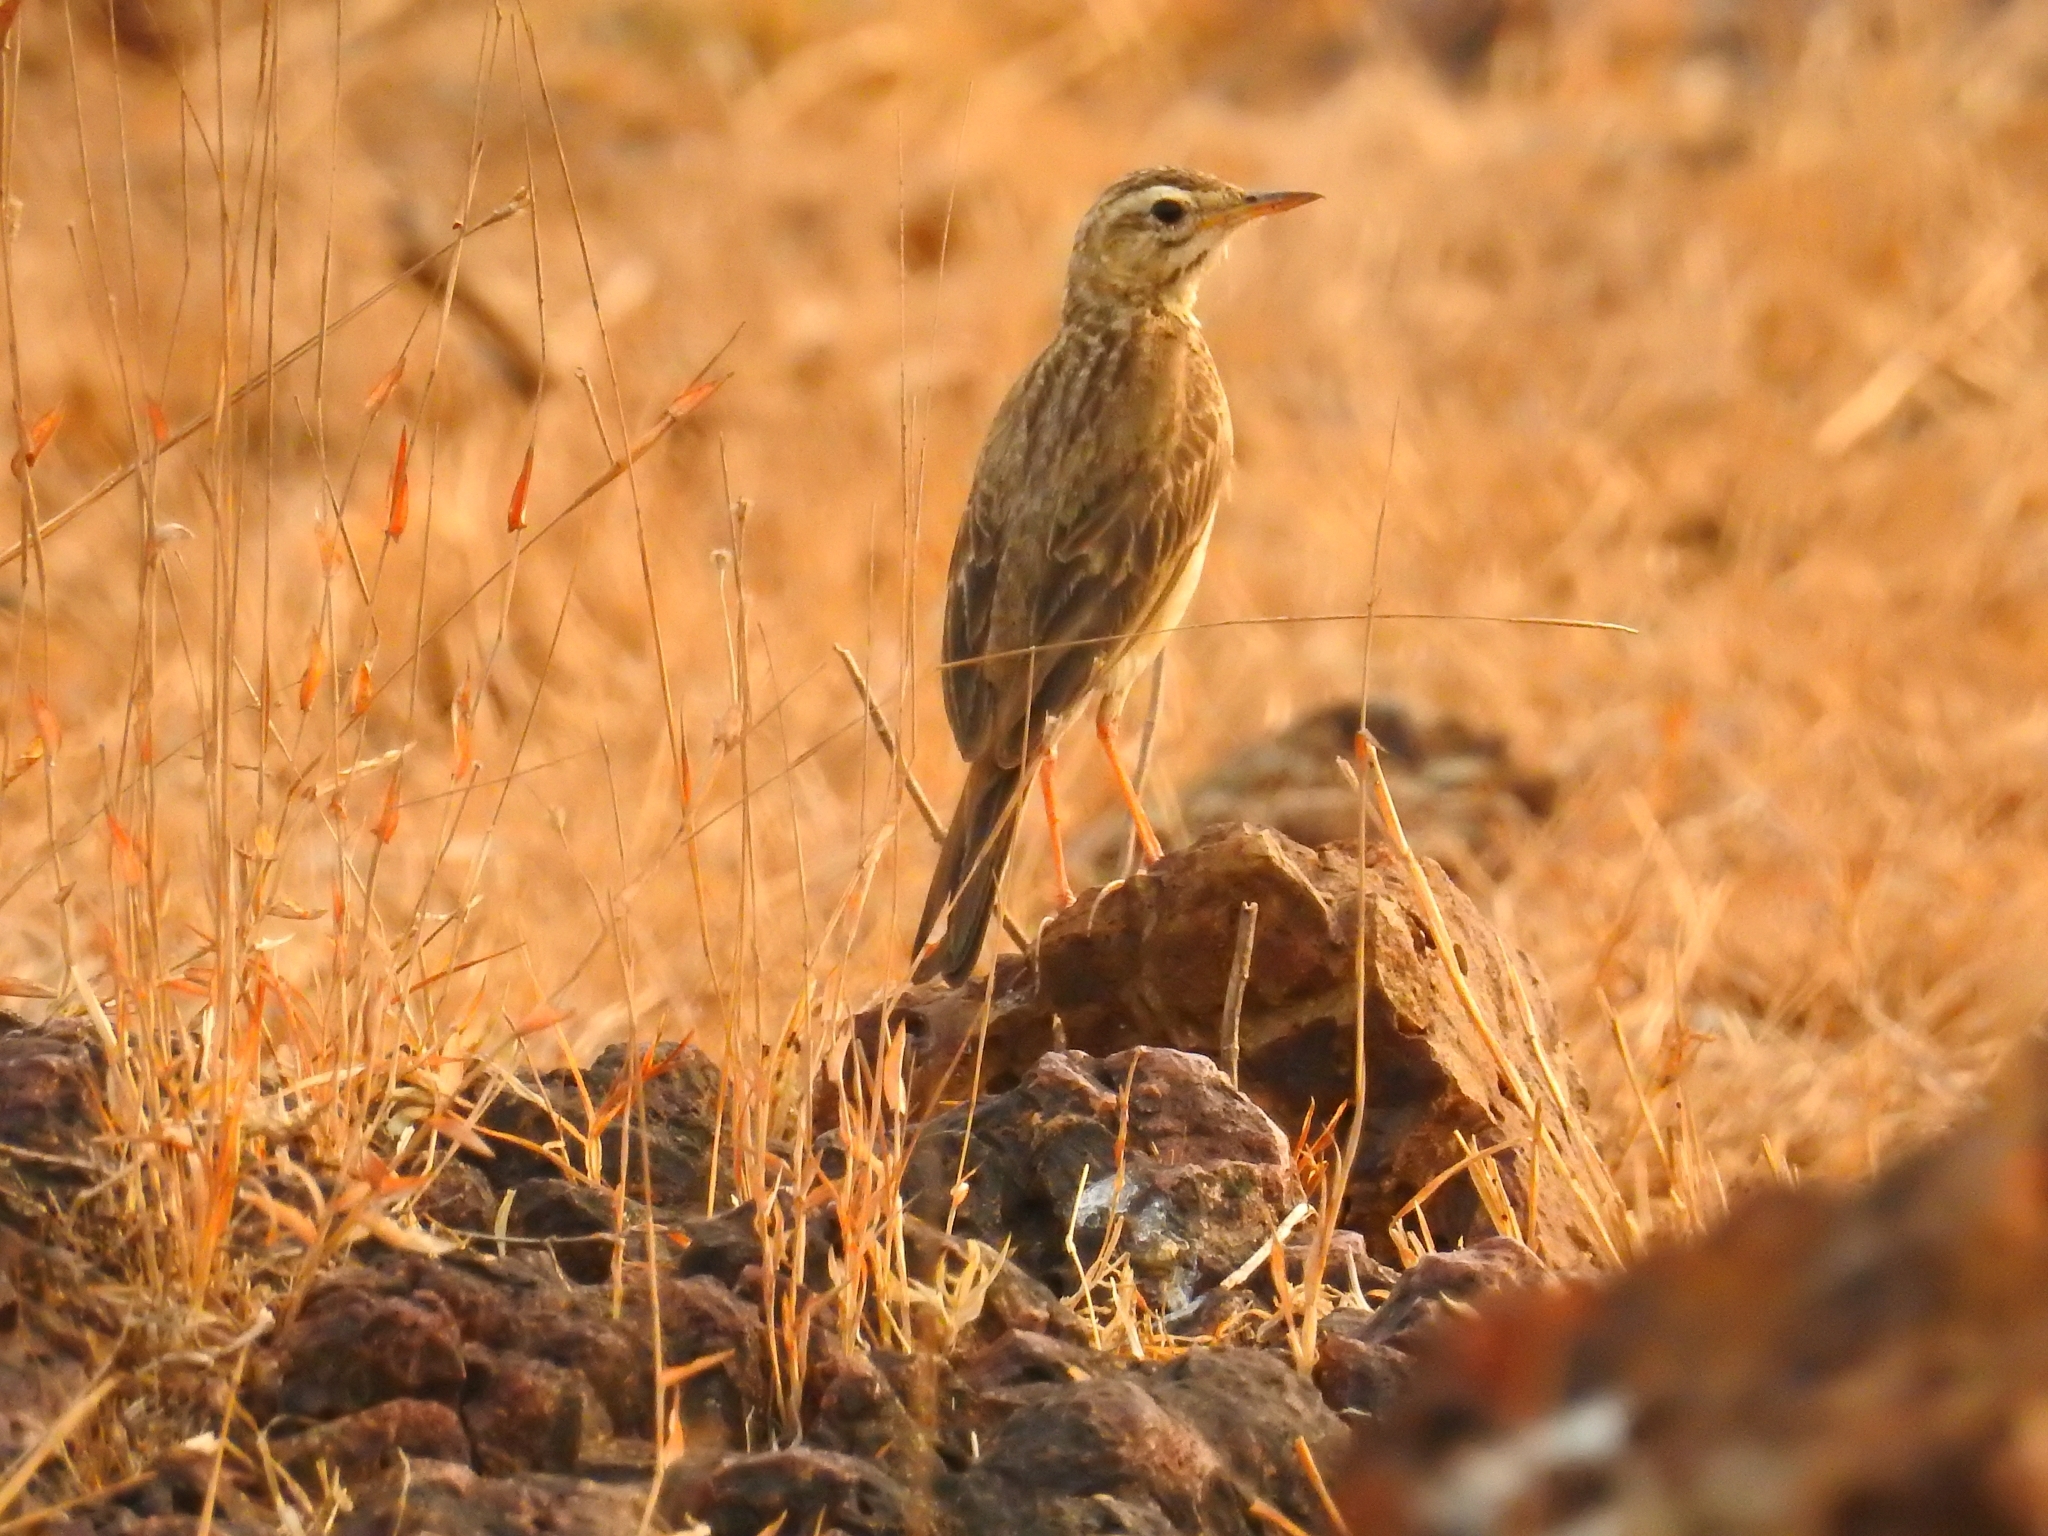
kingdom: Animalia
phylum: Chordata
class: Aves
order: Passeriformes
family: Motacillidae
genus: Anthus
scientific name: Anthus rufulus
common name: Paddyfield pipit
